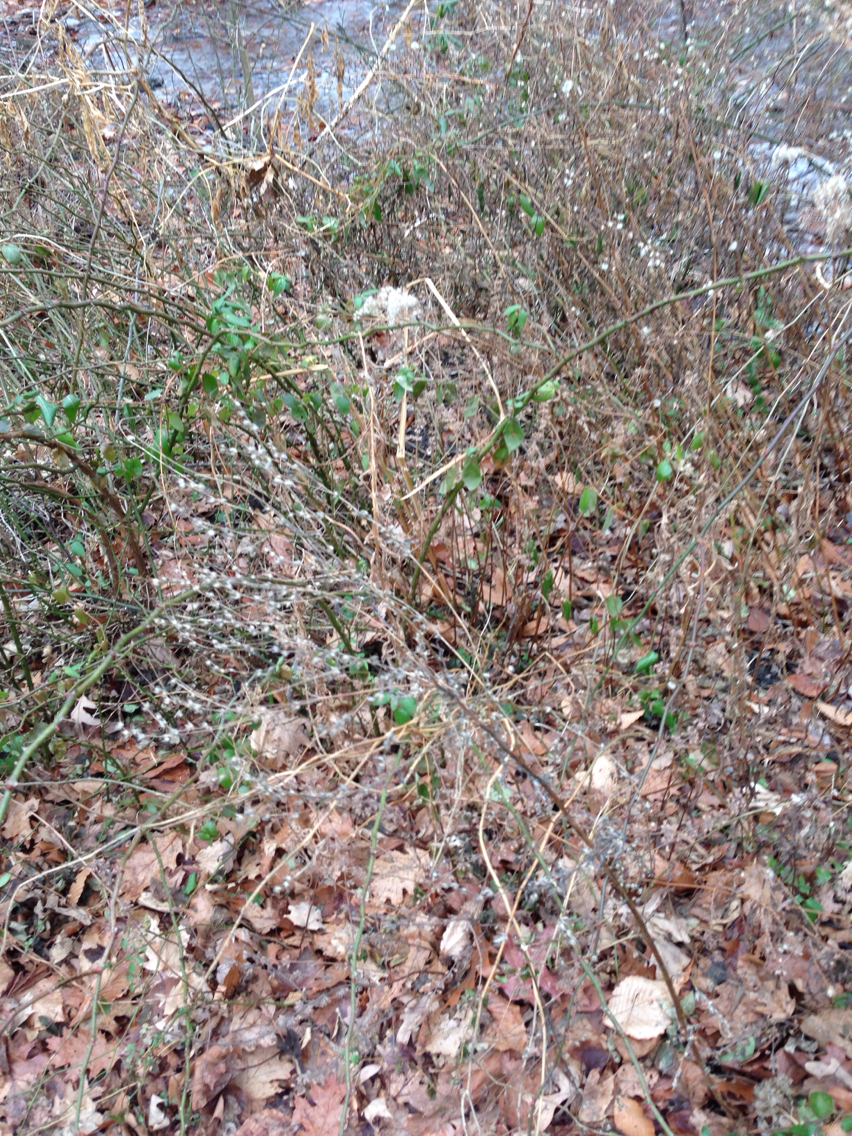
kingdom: Plantae
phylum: Tracheophyta
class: Magnoliopsida
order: Rosales
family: Rosaceae
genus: Rosa
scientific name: Rosa multiflora
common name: Multiflora rose
